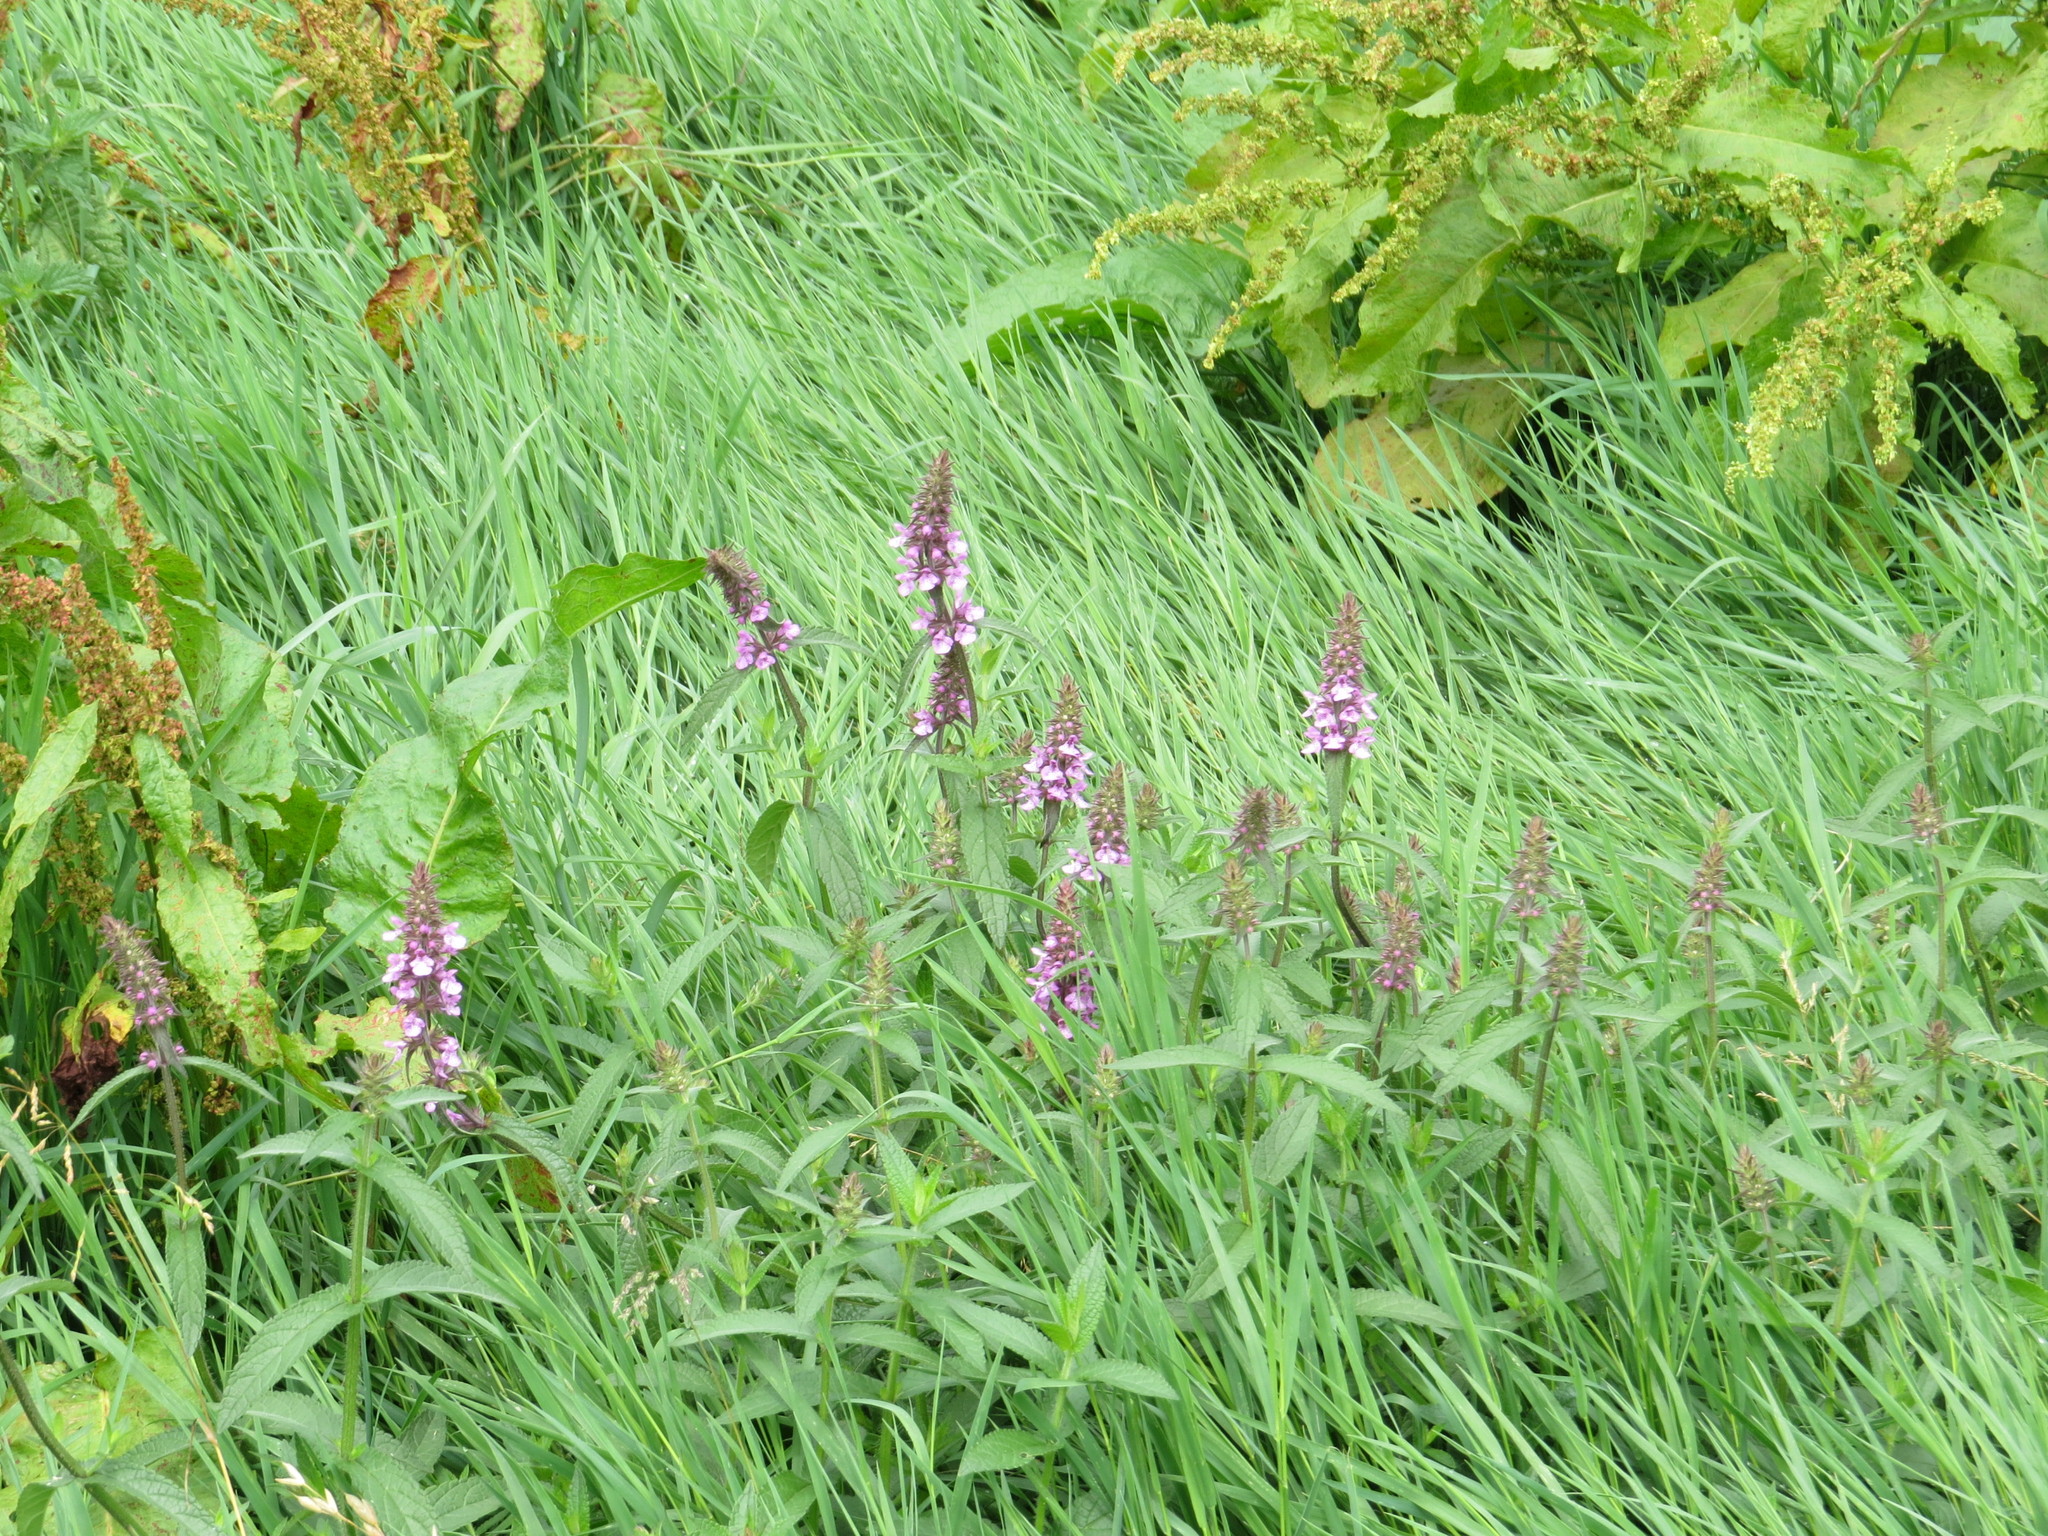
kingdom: Plantae
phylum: Tracheophyta
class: Magnoliopsida
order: Lamiales
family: Lamiaceae
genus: Stachys
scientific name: Stachys palustris
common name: Marsh woundwort
